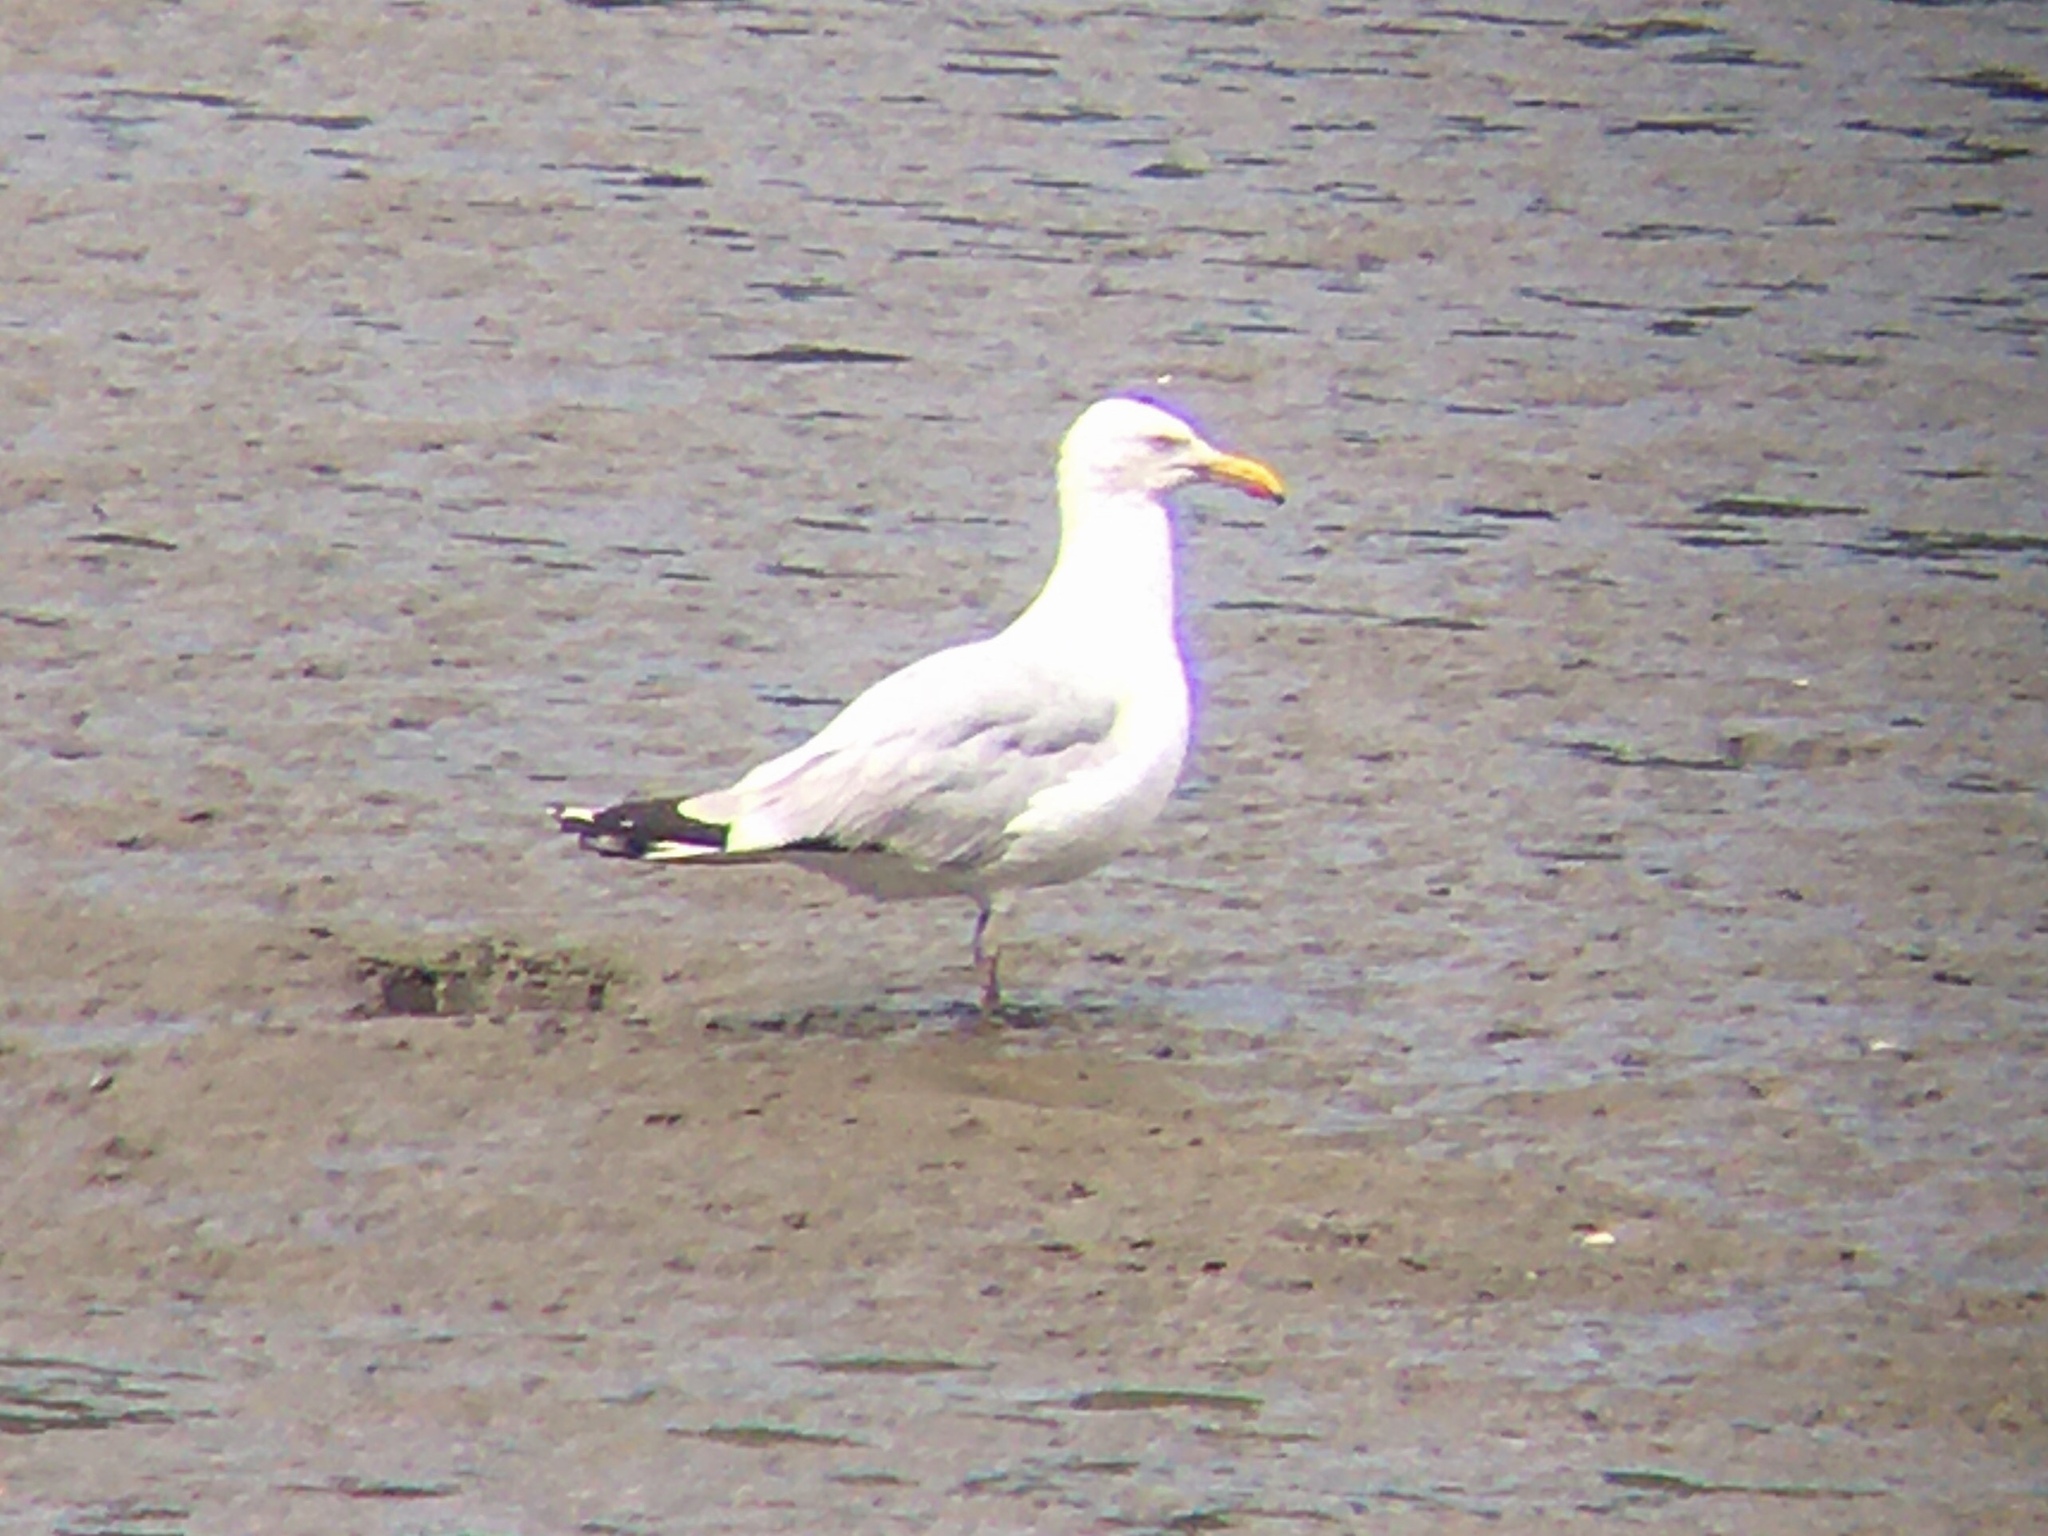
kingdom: Animalia
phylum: Chordata
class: Aves
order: Charadriiformes
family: Laridae
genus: Larus
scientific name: Larus argentatus
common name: Herring gull
